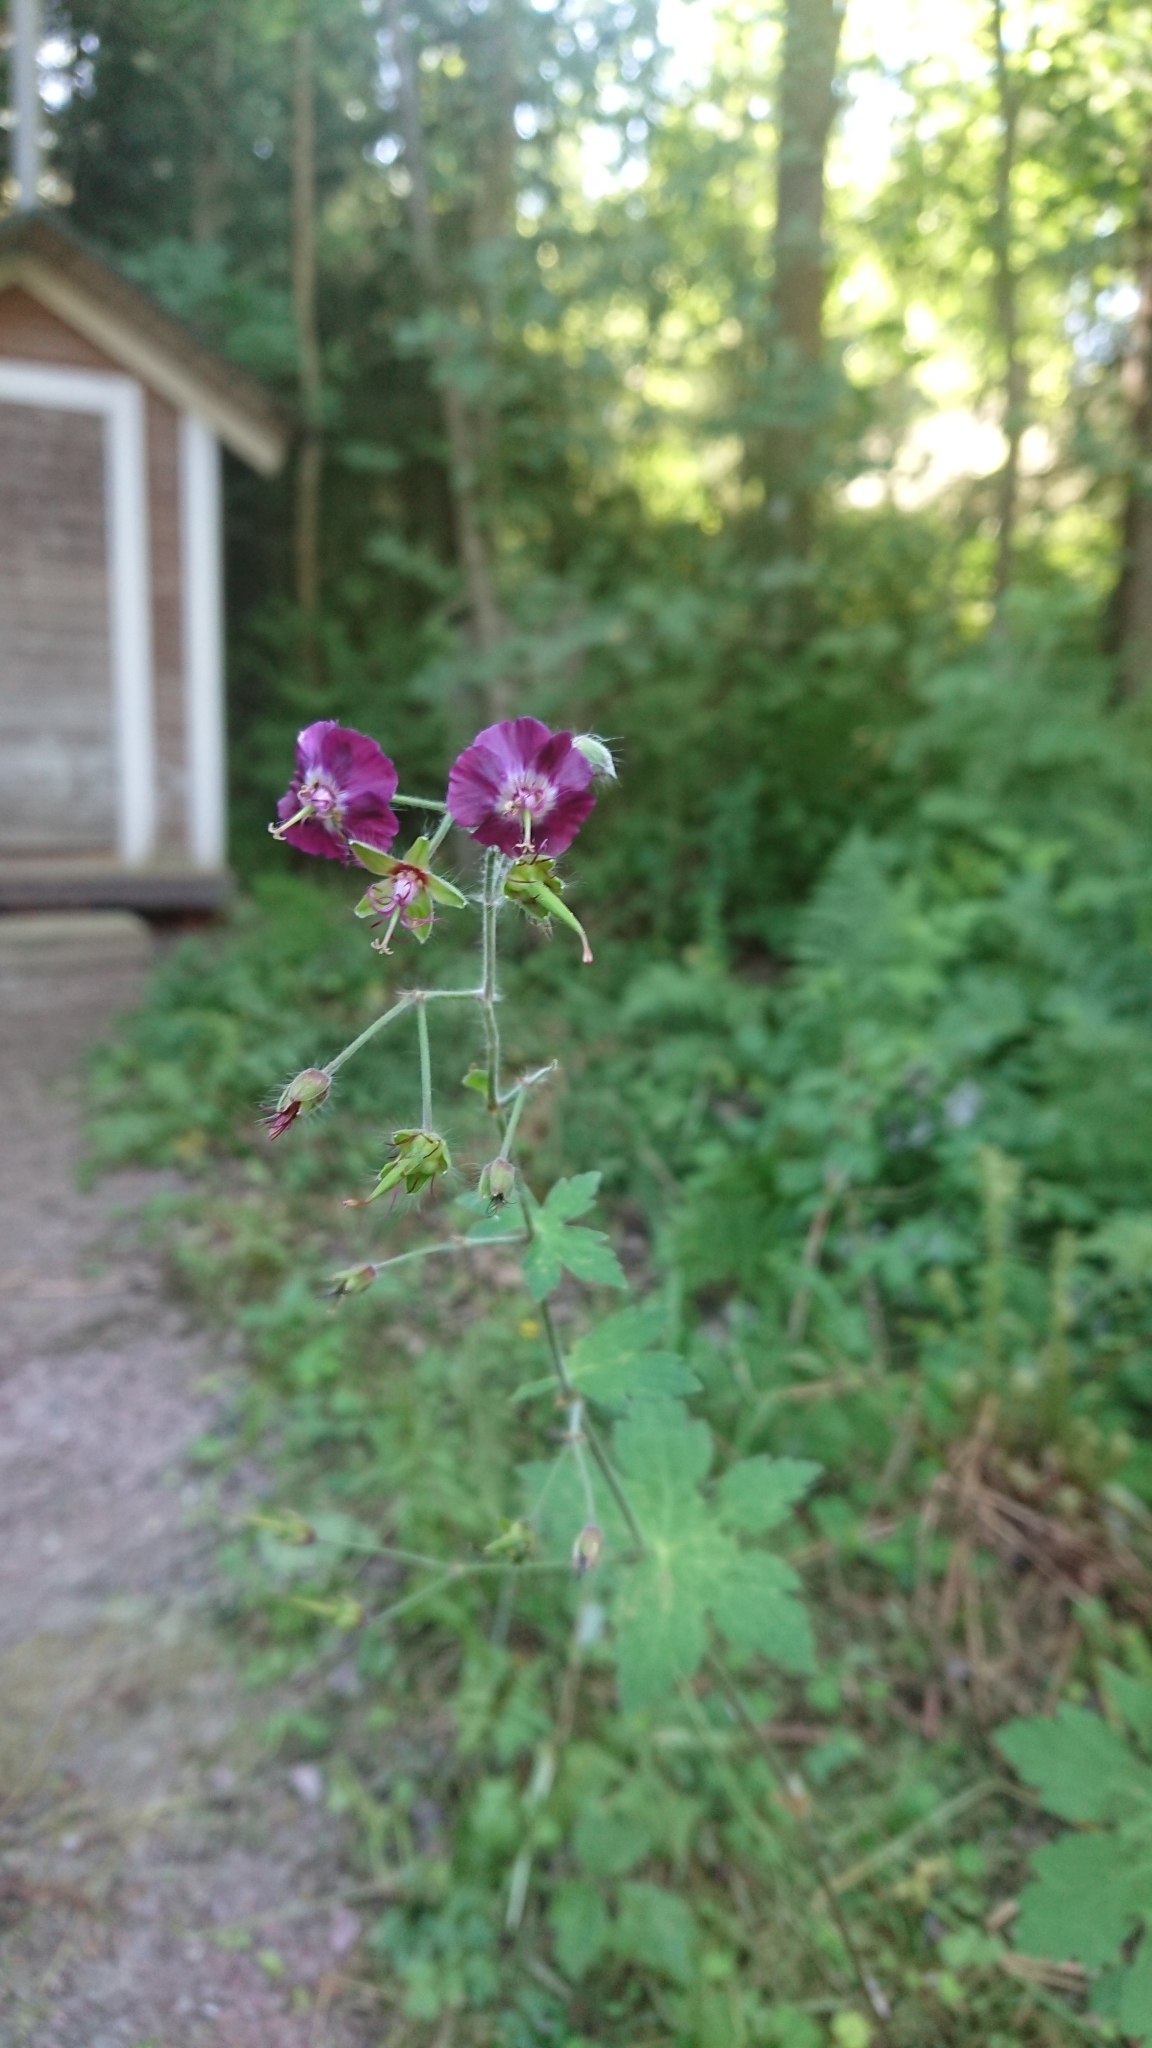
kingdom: Plantae
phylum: Tracheophyta
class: Magnoliopsida
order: Geraniales
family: Geraniaceae
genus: Geranium
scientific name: Geranium phaeum
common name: Dusky crane's-bill
